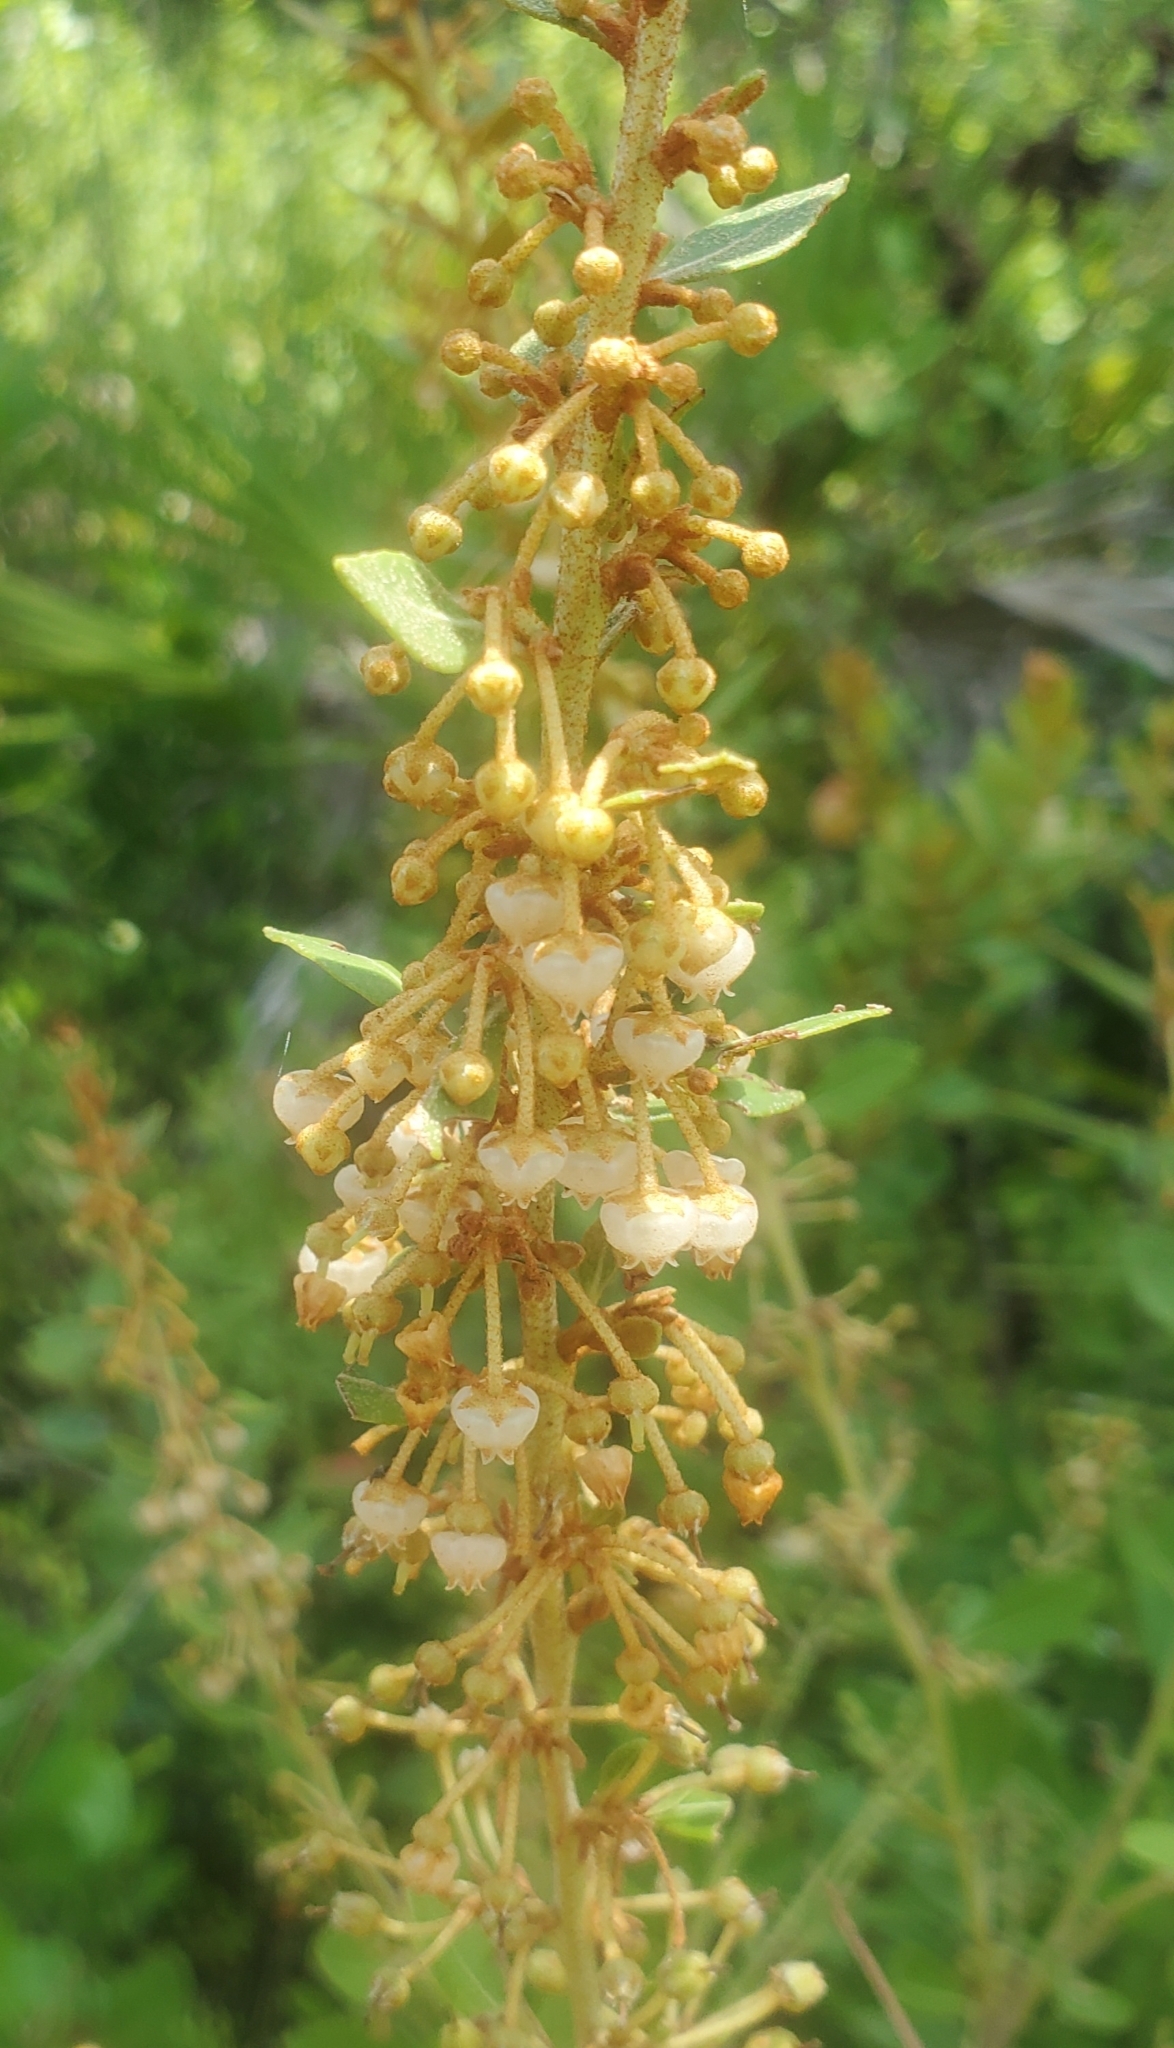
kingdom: Plantae
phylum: Tracheophyta
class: Magnoliopsida
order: Ericales
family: Ericaceae
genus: Lyonia
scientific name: Lyonia fruticosa
